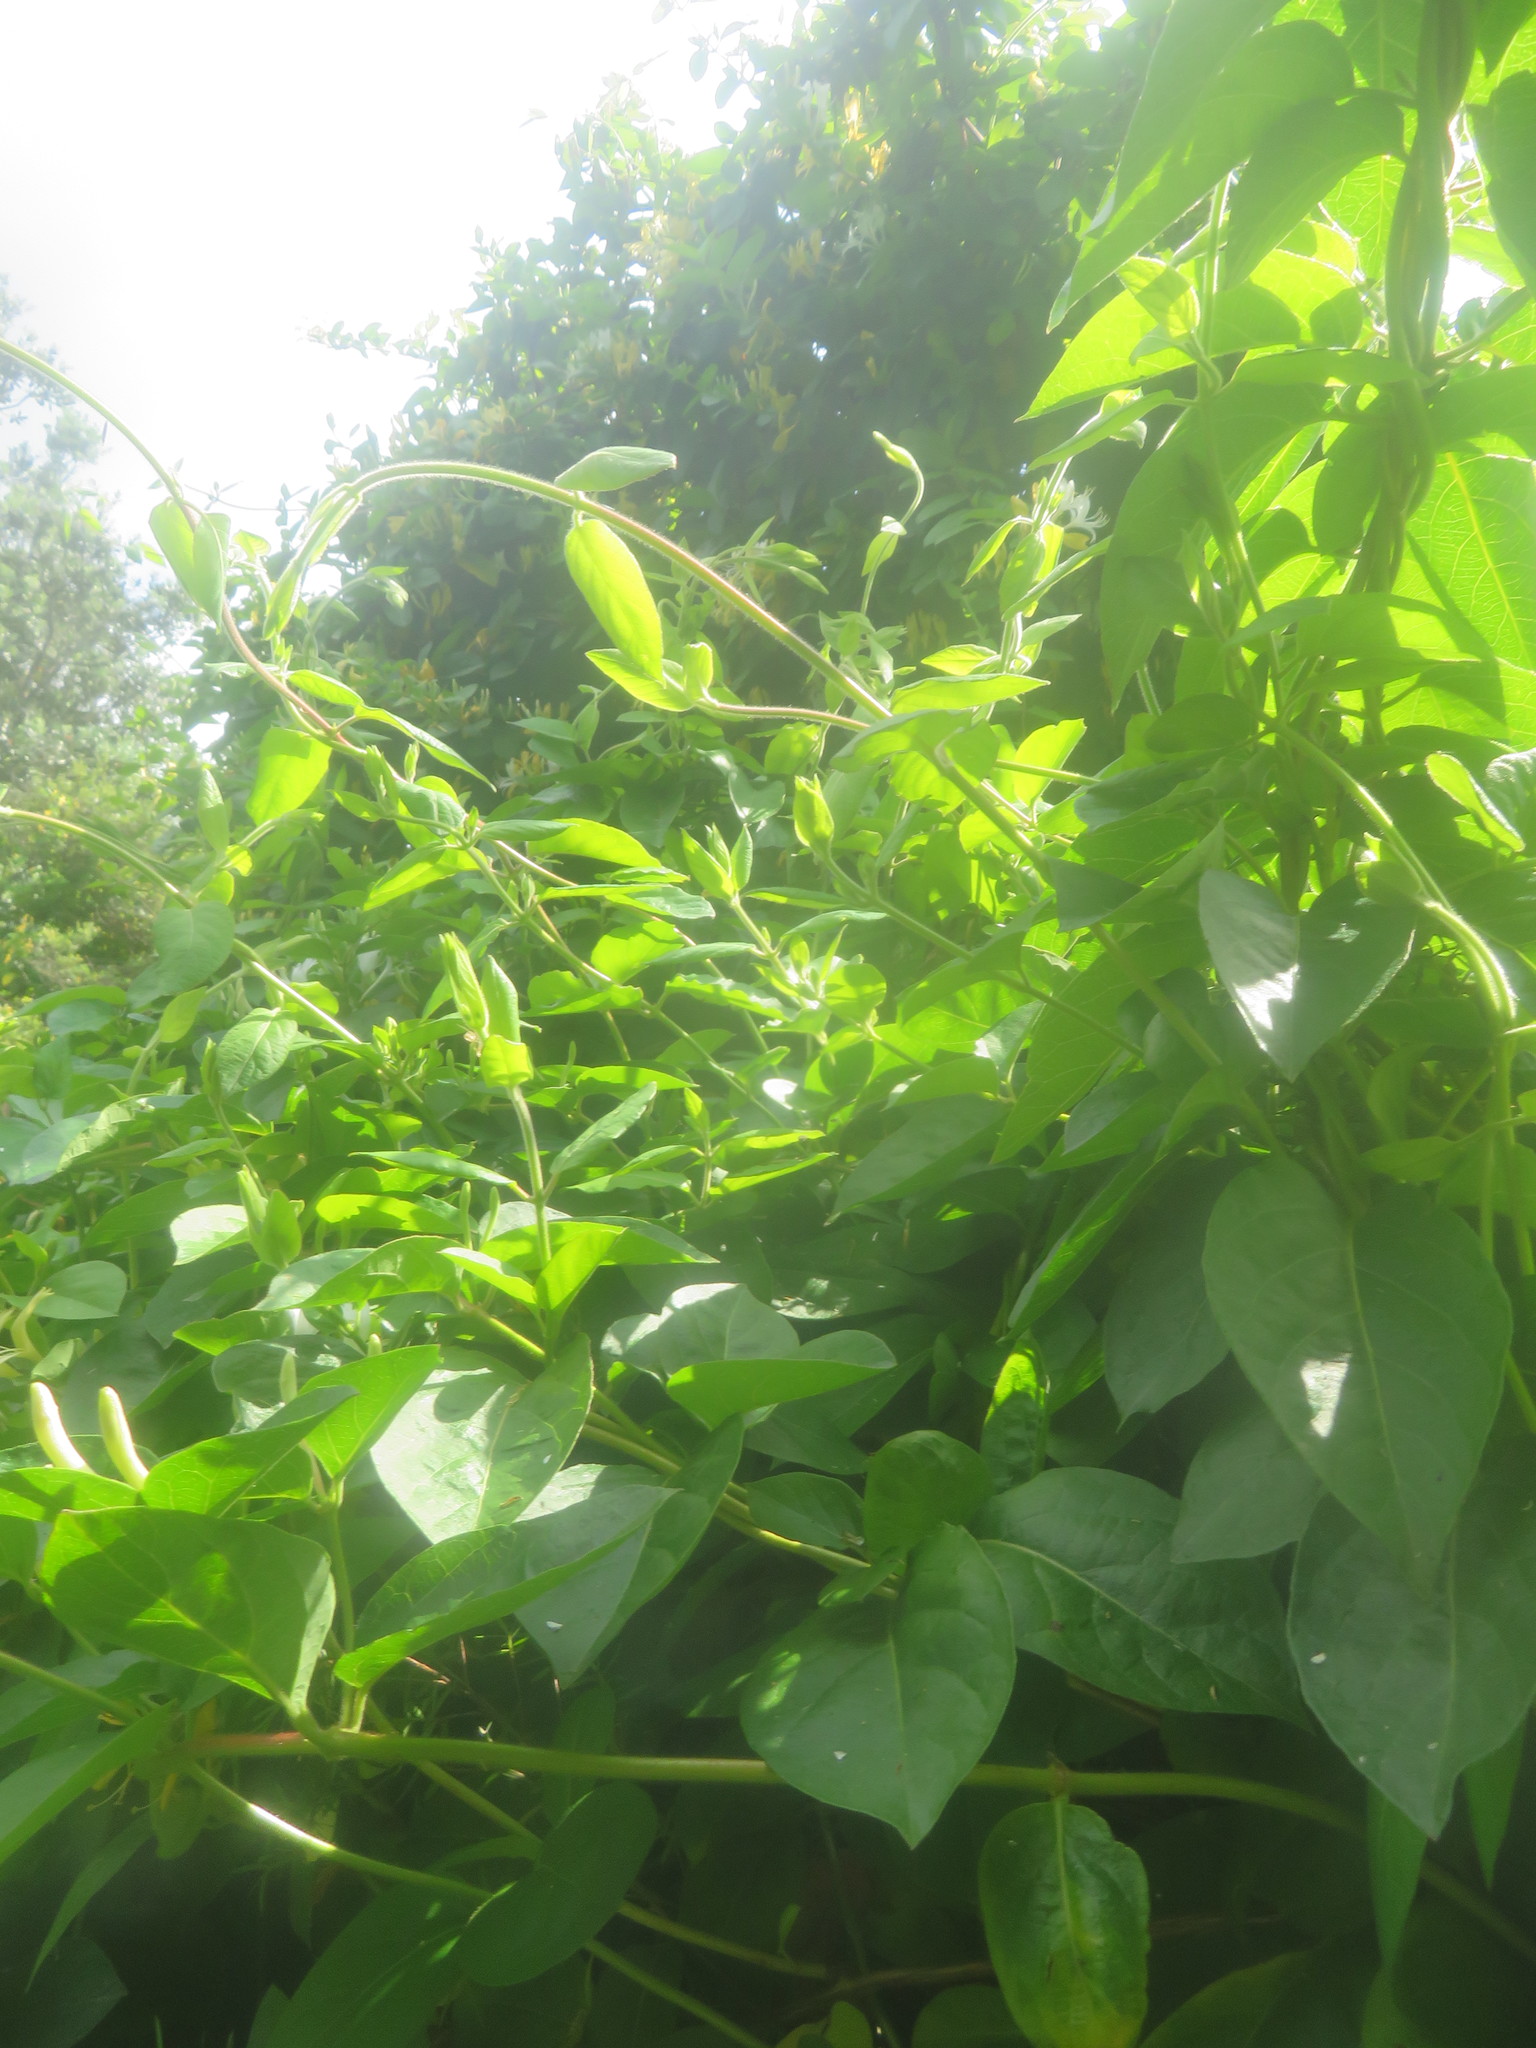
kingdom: Plantae
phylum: Tracheophyta
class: Magnoliopsida
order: Dipsacales
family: Caprifoliaceae
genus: Lonicera
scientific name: Lonicera japonica
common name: Japanese honeysuckle
